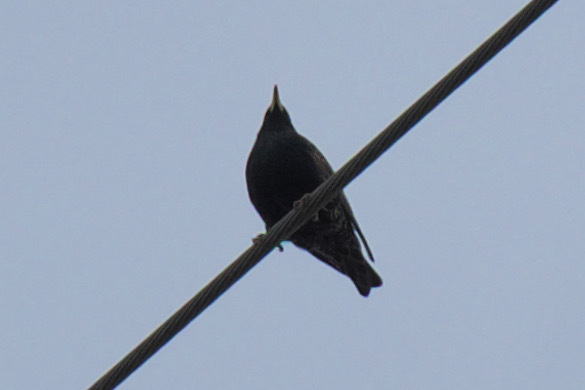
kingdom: Animalia
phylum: Chordata
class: Aves
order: Passeriformes
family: Sturnidae
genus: Sturnus
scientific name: Sturnus vulgaris
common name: Common starling
